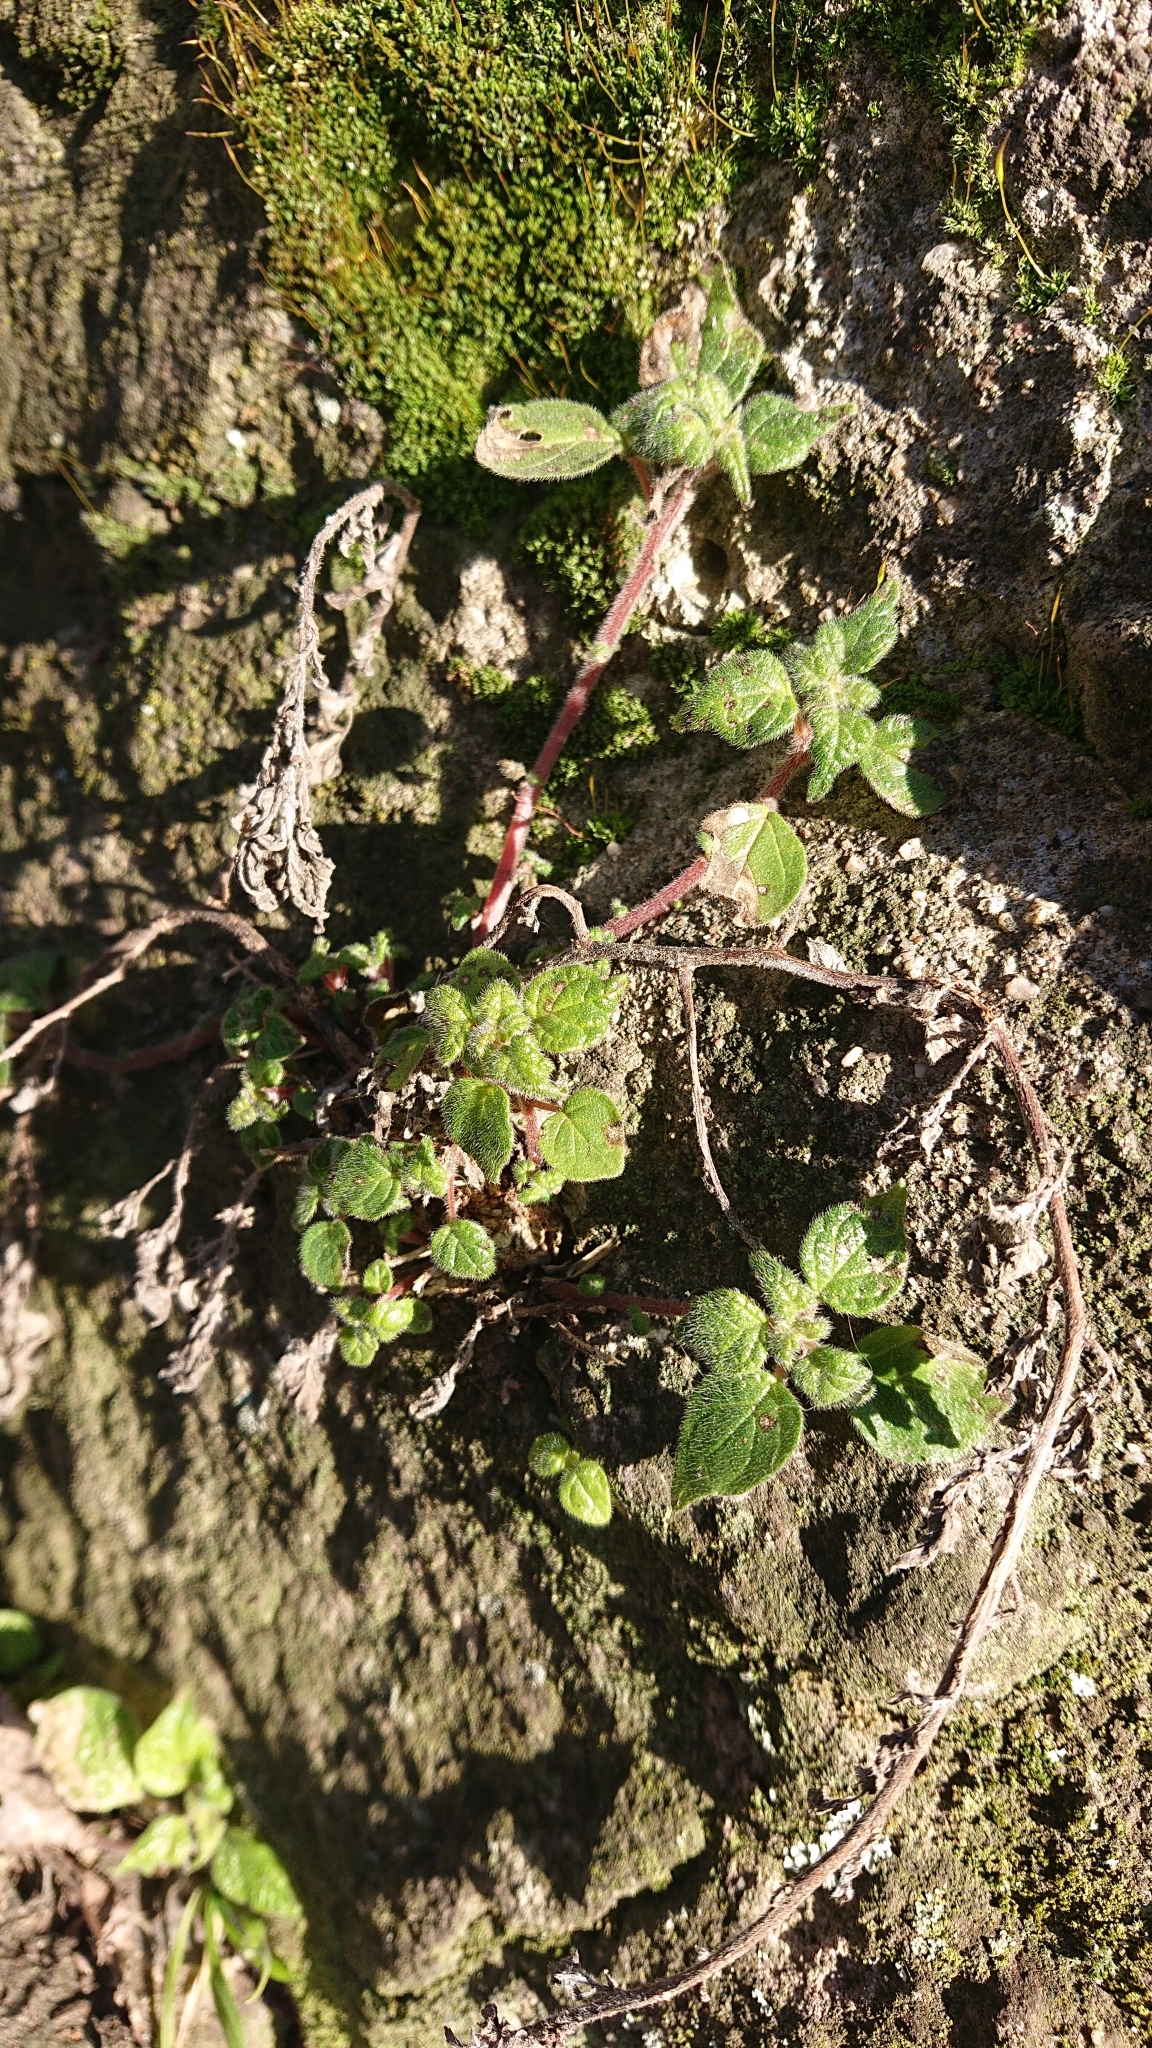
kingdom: Plantae
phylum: Tracheophyta
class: Magnoliopsida
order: Rosales
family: Urticaceae
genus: Parietaria
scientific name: Parietaria judaica
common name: Pellitory-of-the-wall
